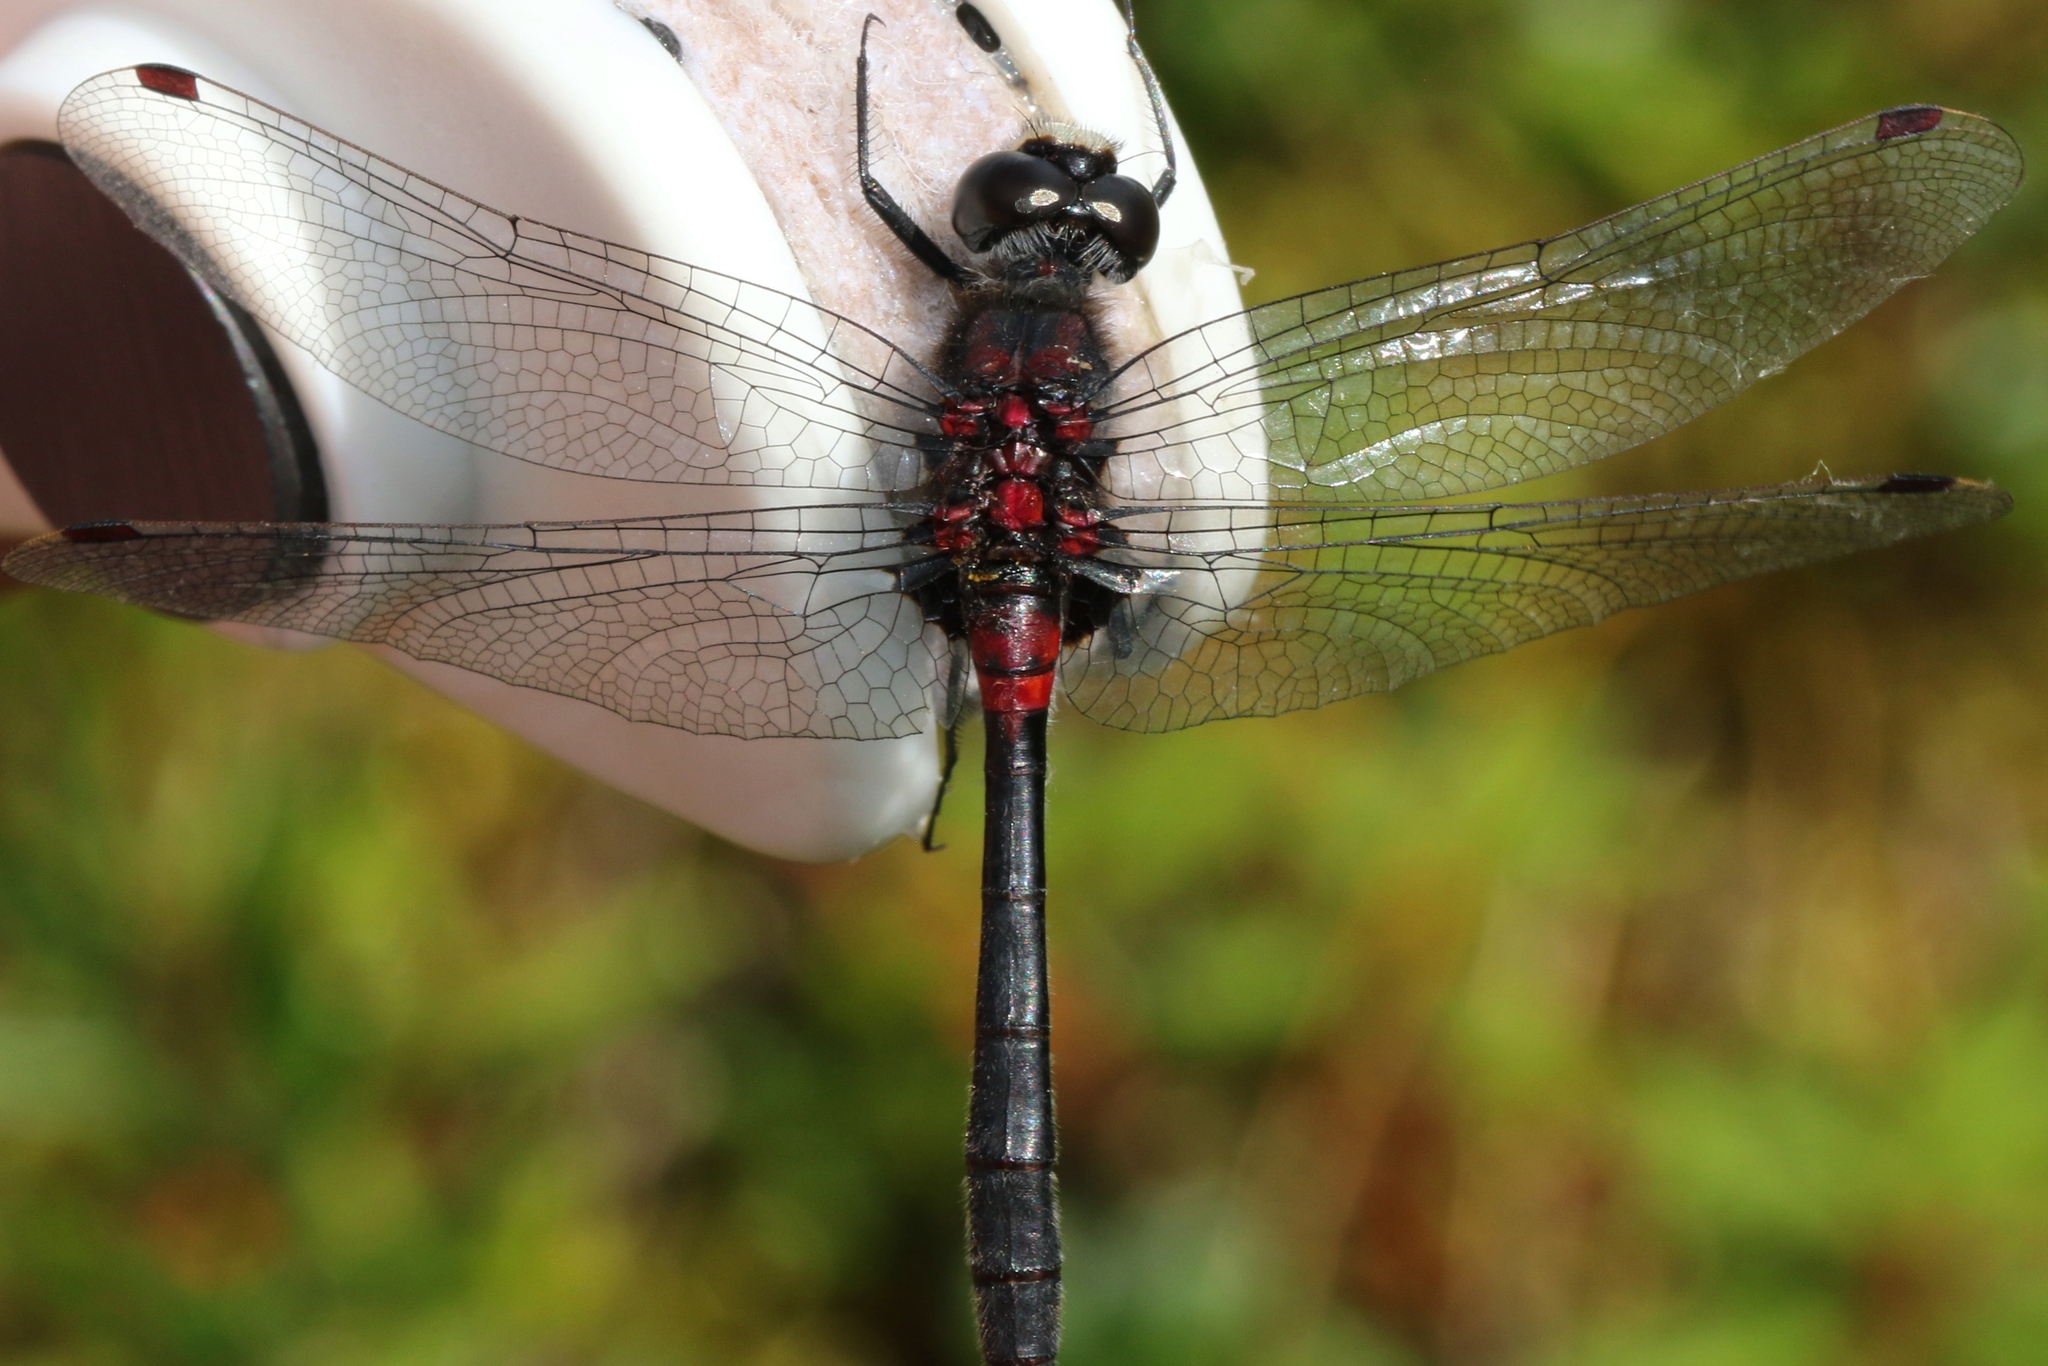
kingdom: Animalia
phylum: Arthropoda
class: Insecta
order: Odonata
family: Libellulidae
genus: Leucorrhinia
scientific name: Leucorrhinia glacialis
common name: Crimson-ringed whiteface
